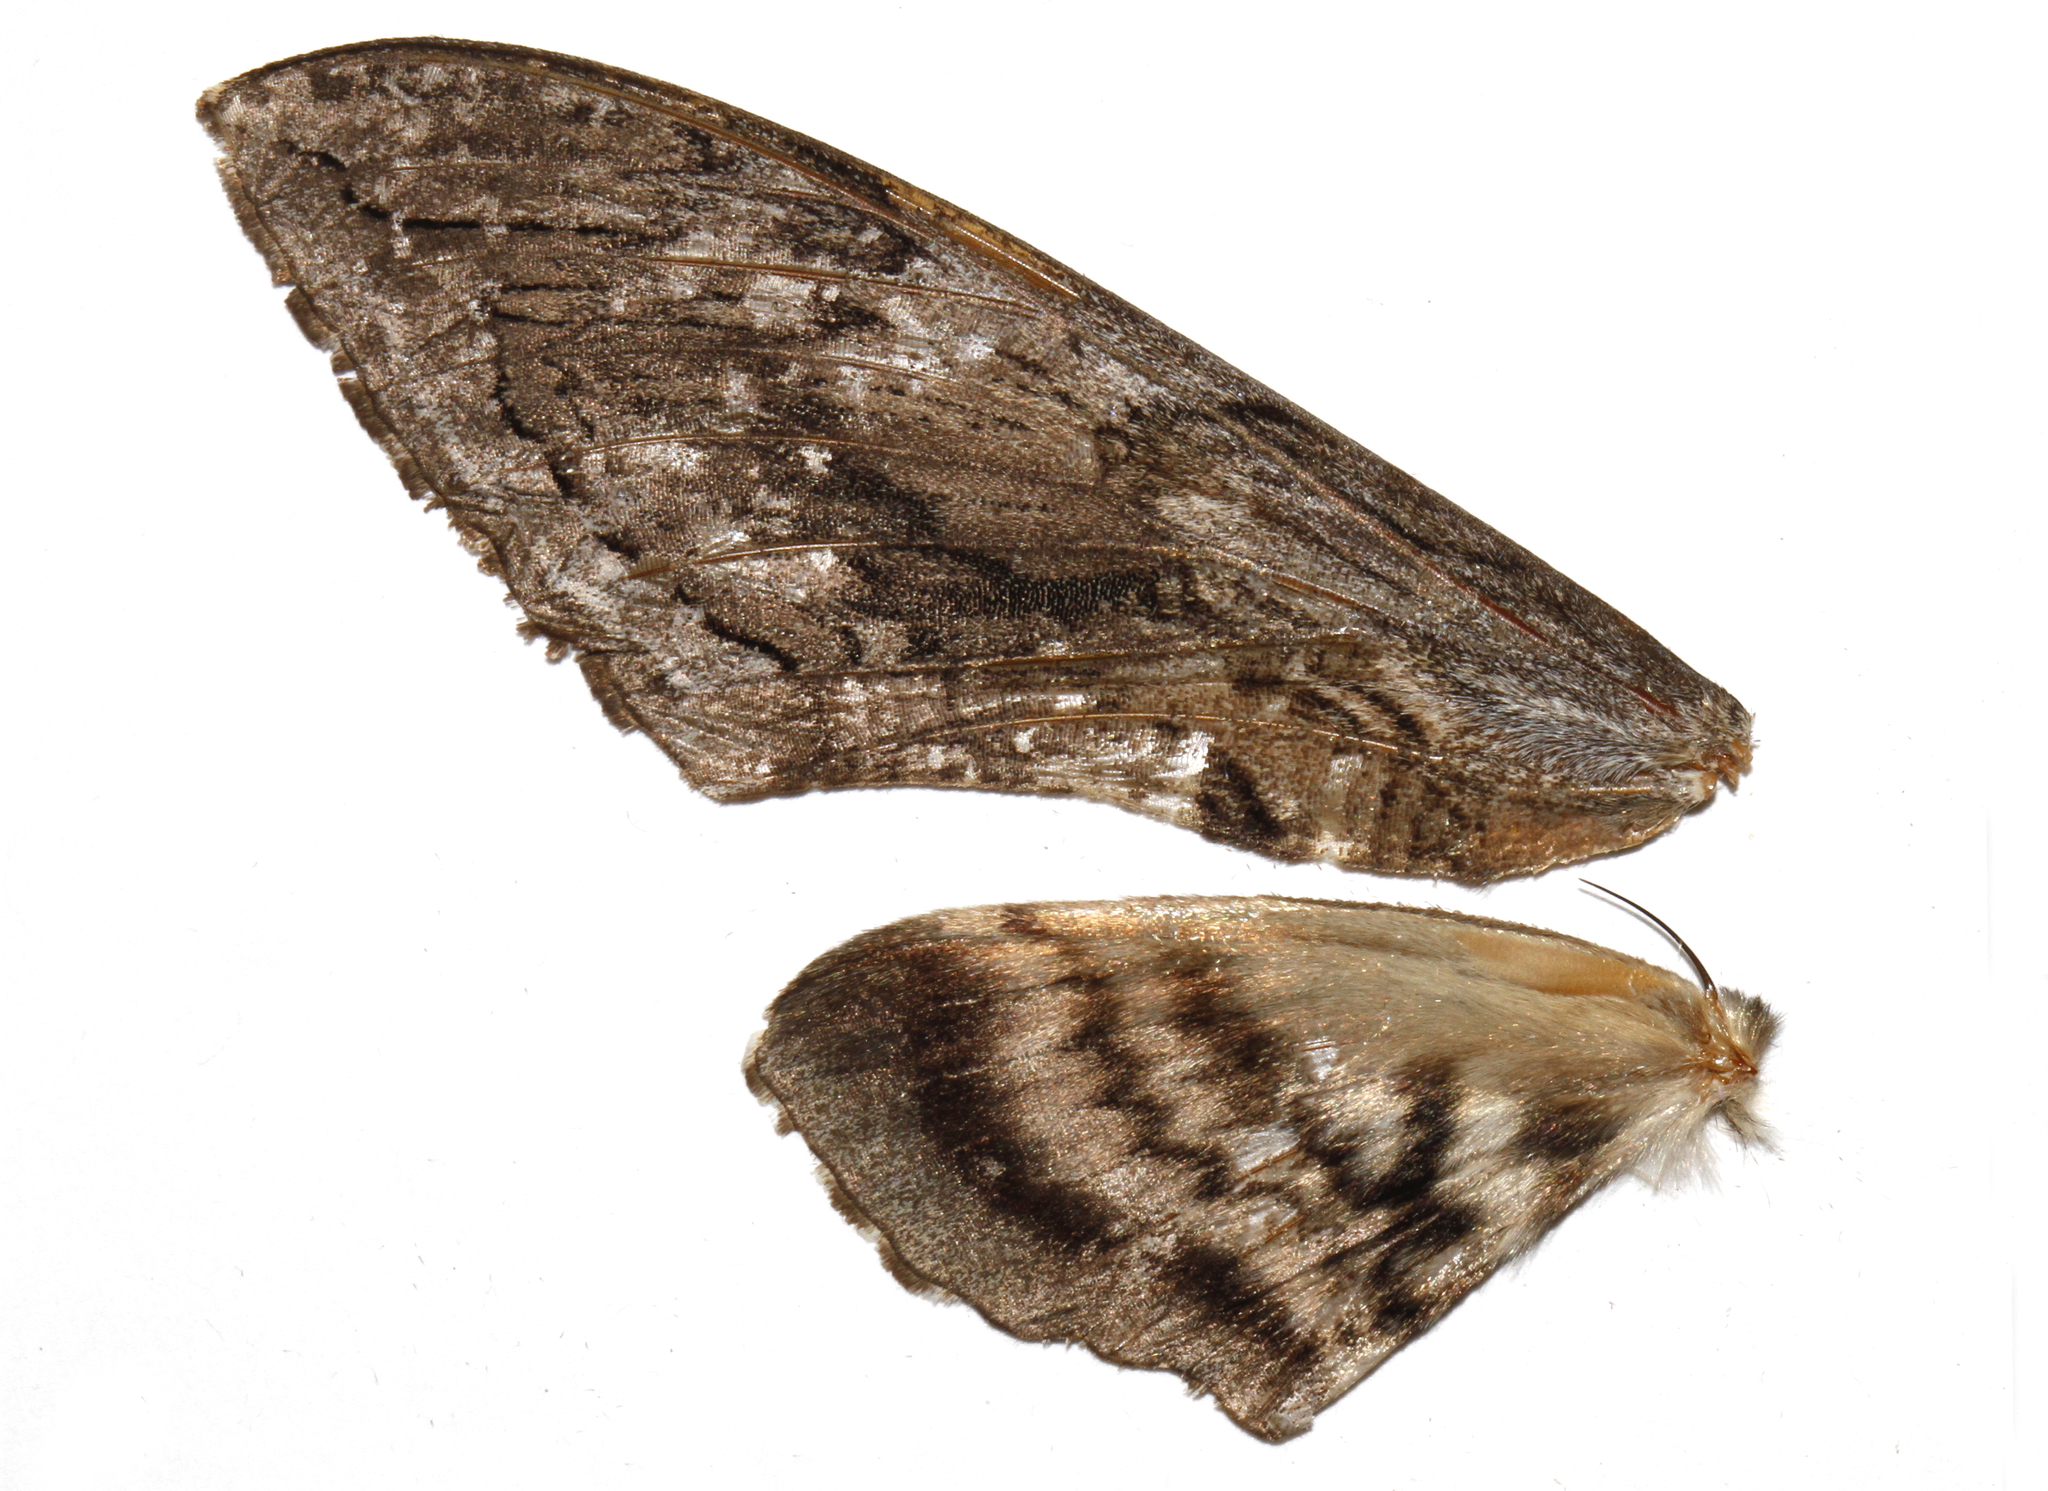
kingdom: Animalia
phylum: Arthropoda
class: Insecta
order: Lepidoptera
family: Sphingidae
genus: Manduca
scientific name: Manduca quinquemaculatus
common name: Five-spotted hawk-moth
